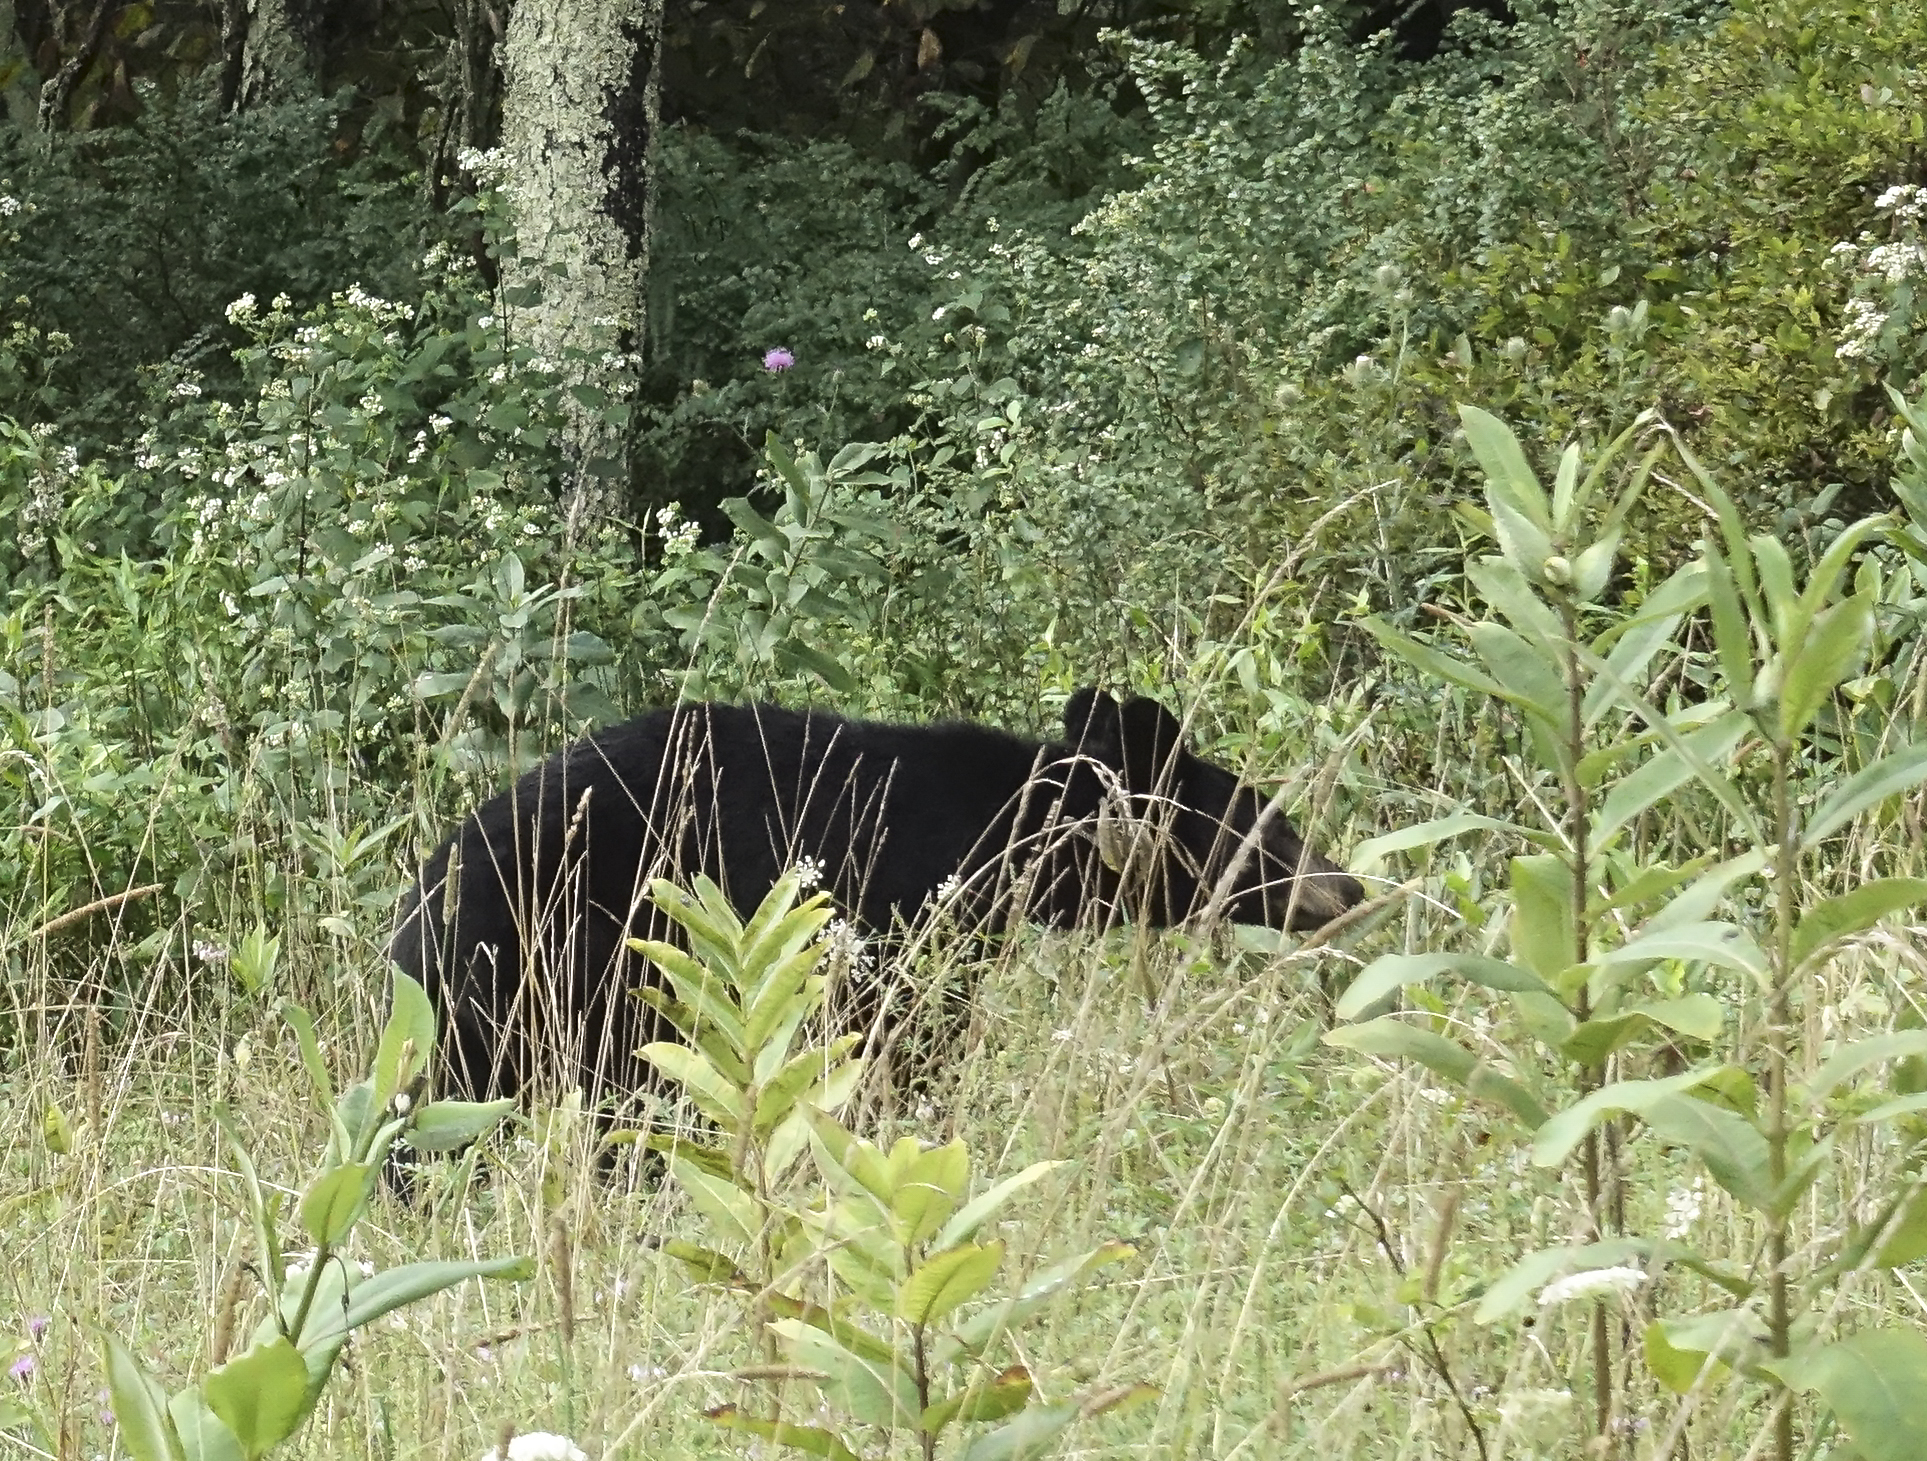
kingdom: Animalia
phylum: Chordata
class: Mammalia
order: Carnivora
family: Ursidae
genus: Ursus
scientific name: Ursus americanus
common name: American black bear
